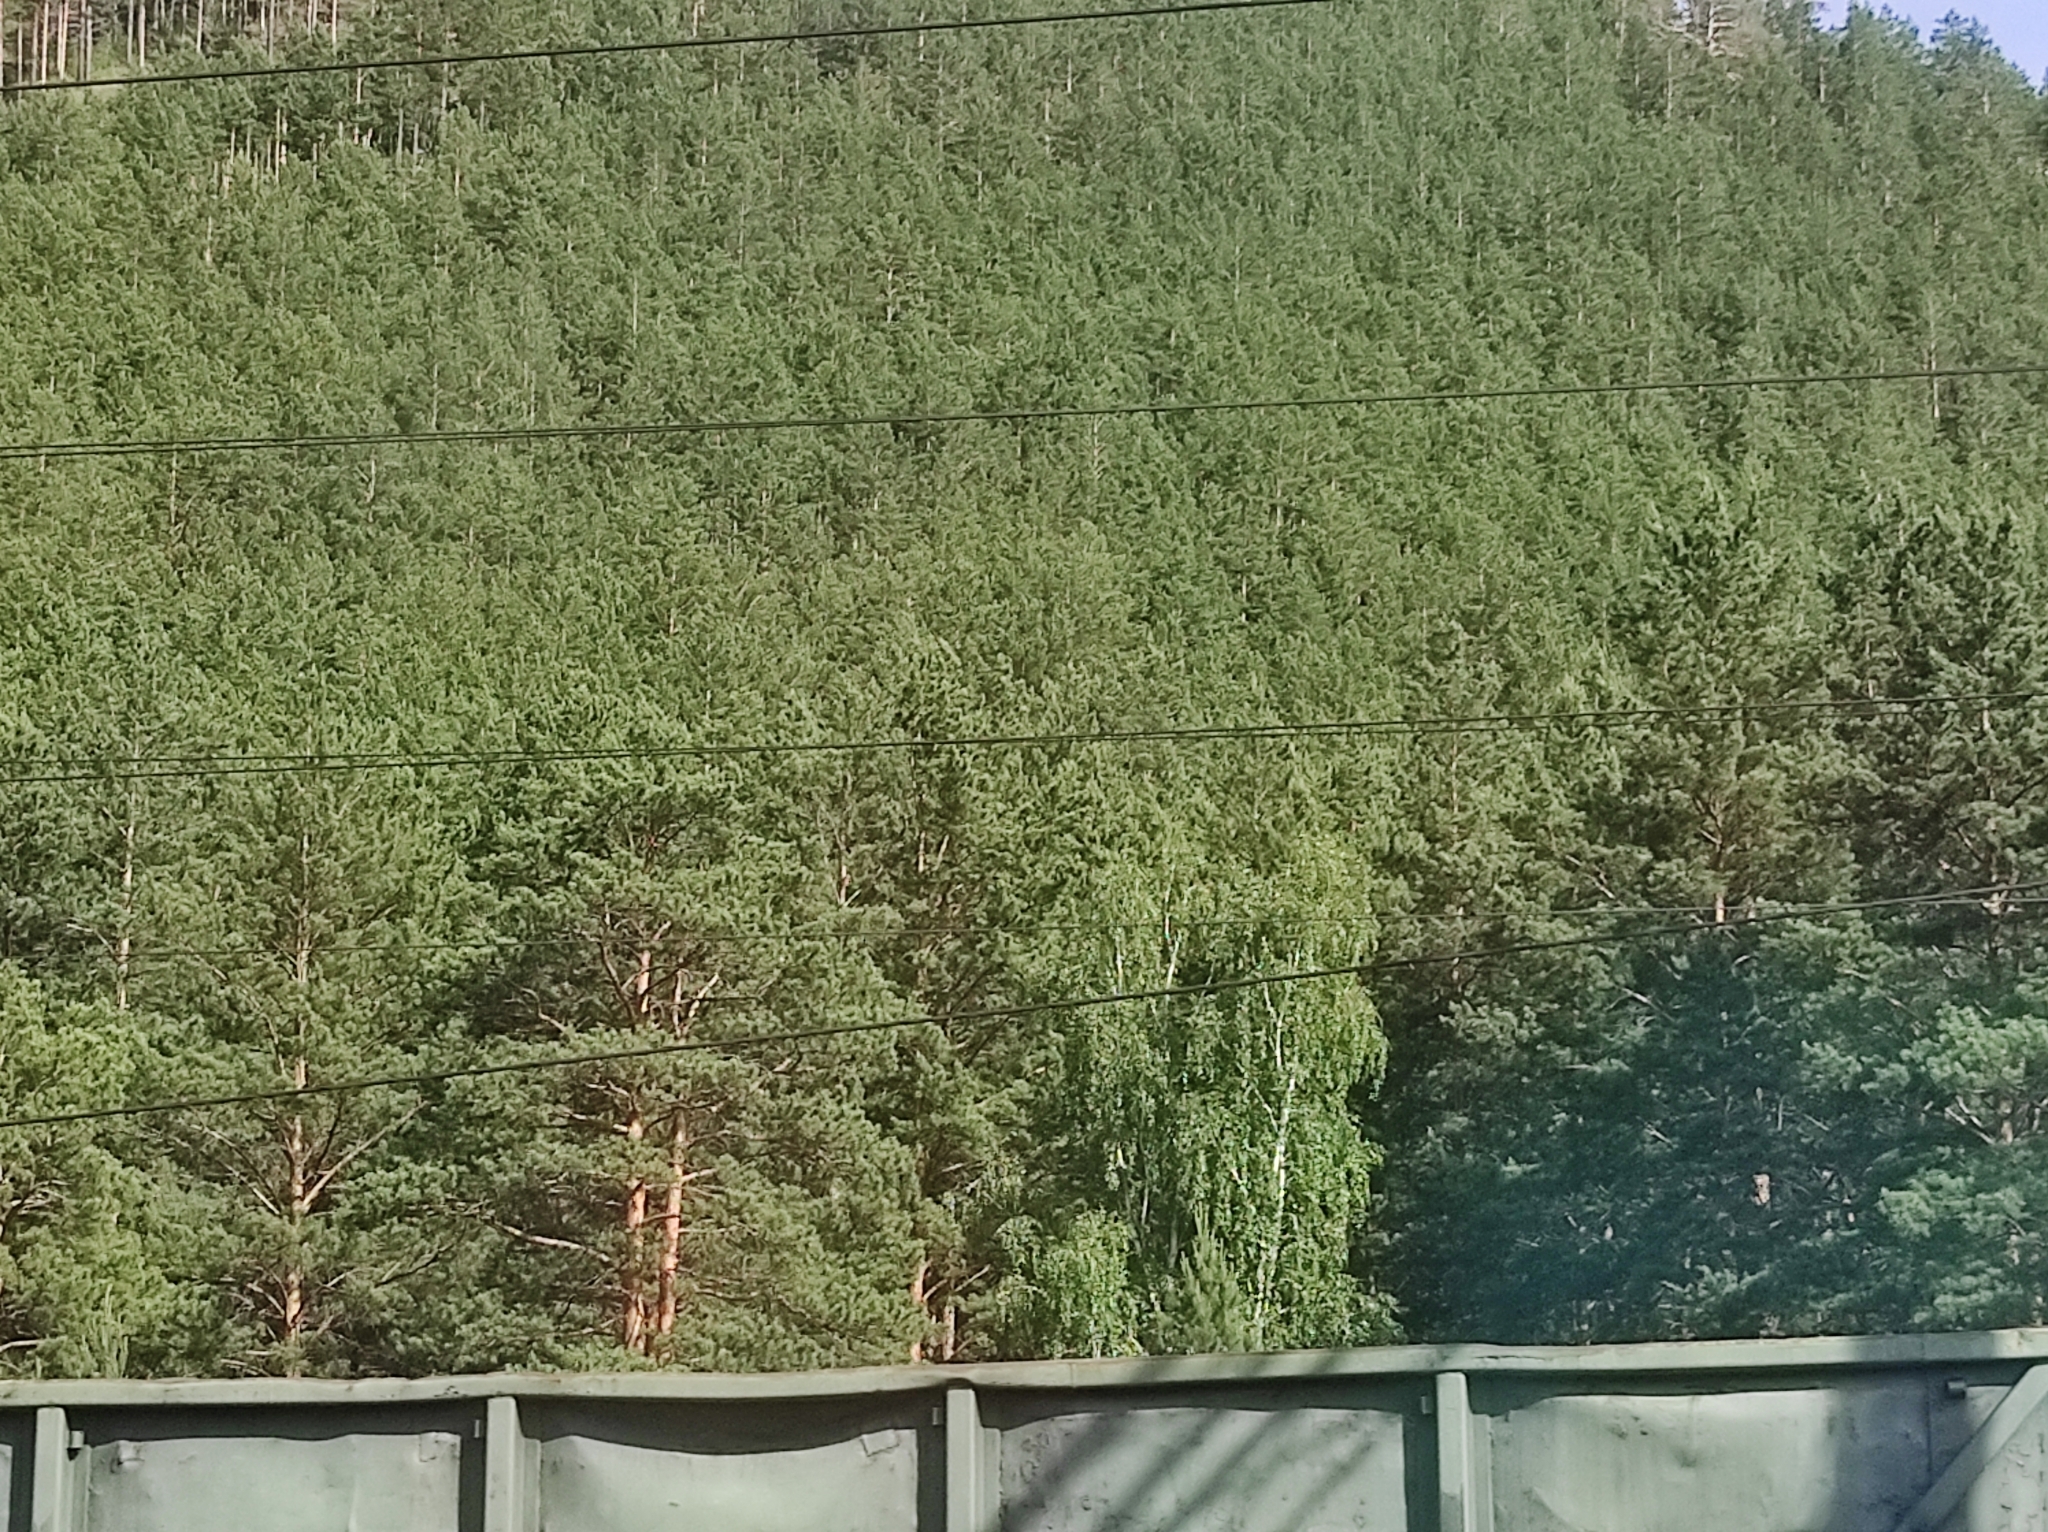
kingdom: Plantae
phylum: Tracheophyta
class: Pinopsida
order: Pinales
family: Pinaceae
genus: Pinus
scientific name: Pinus sylvestris
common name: Scots pine
